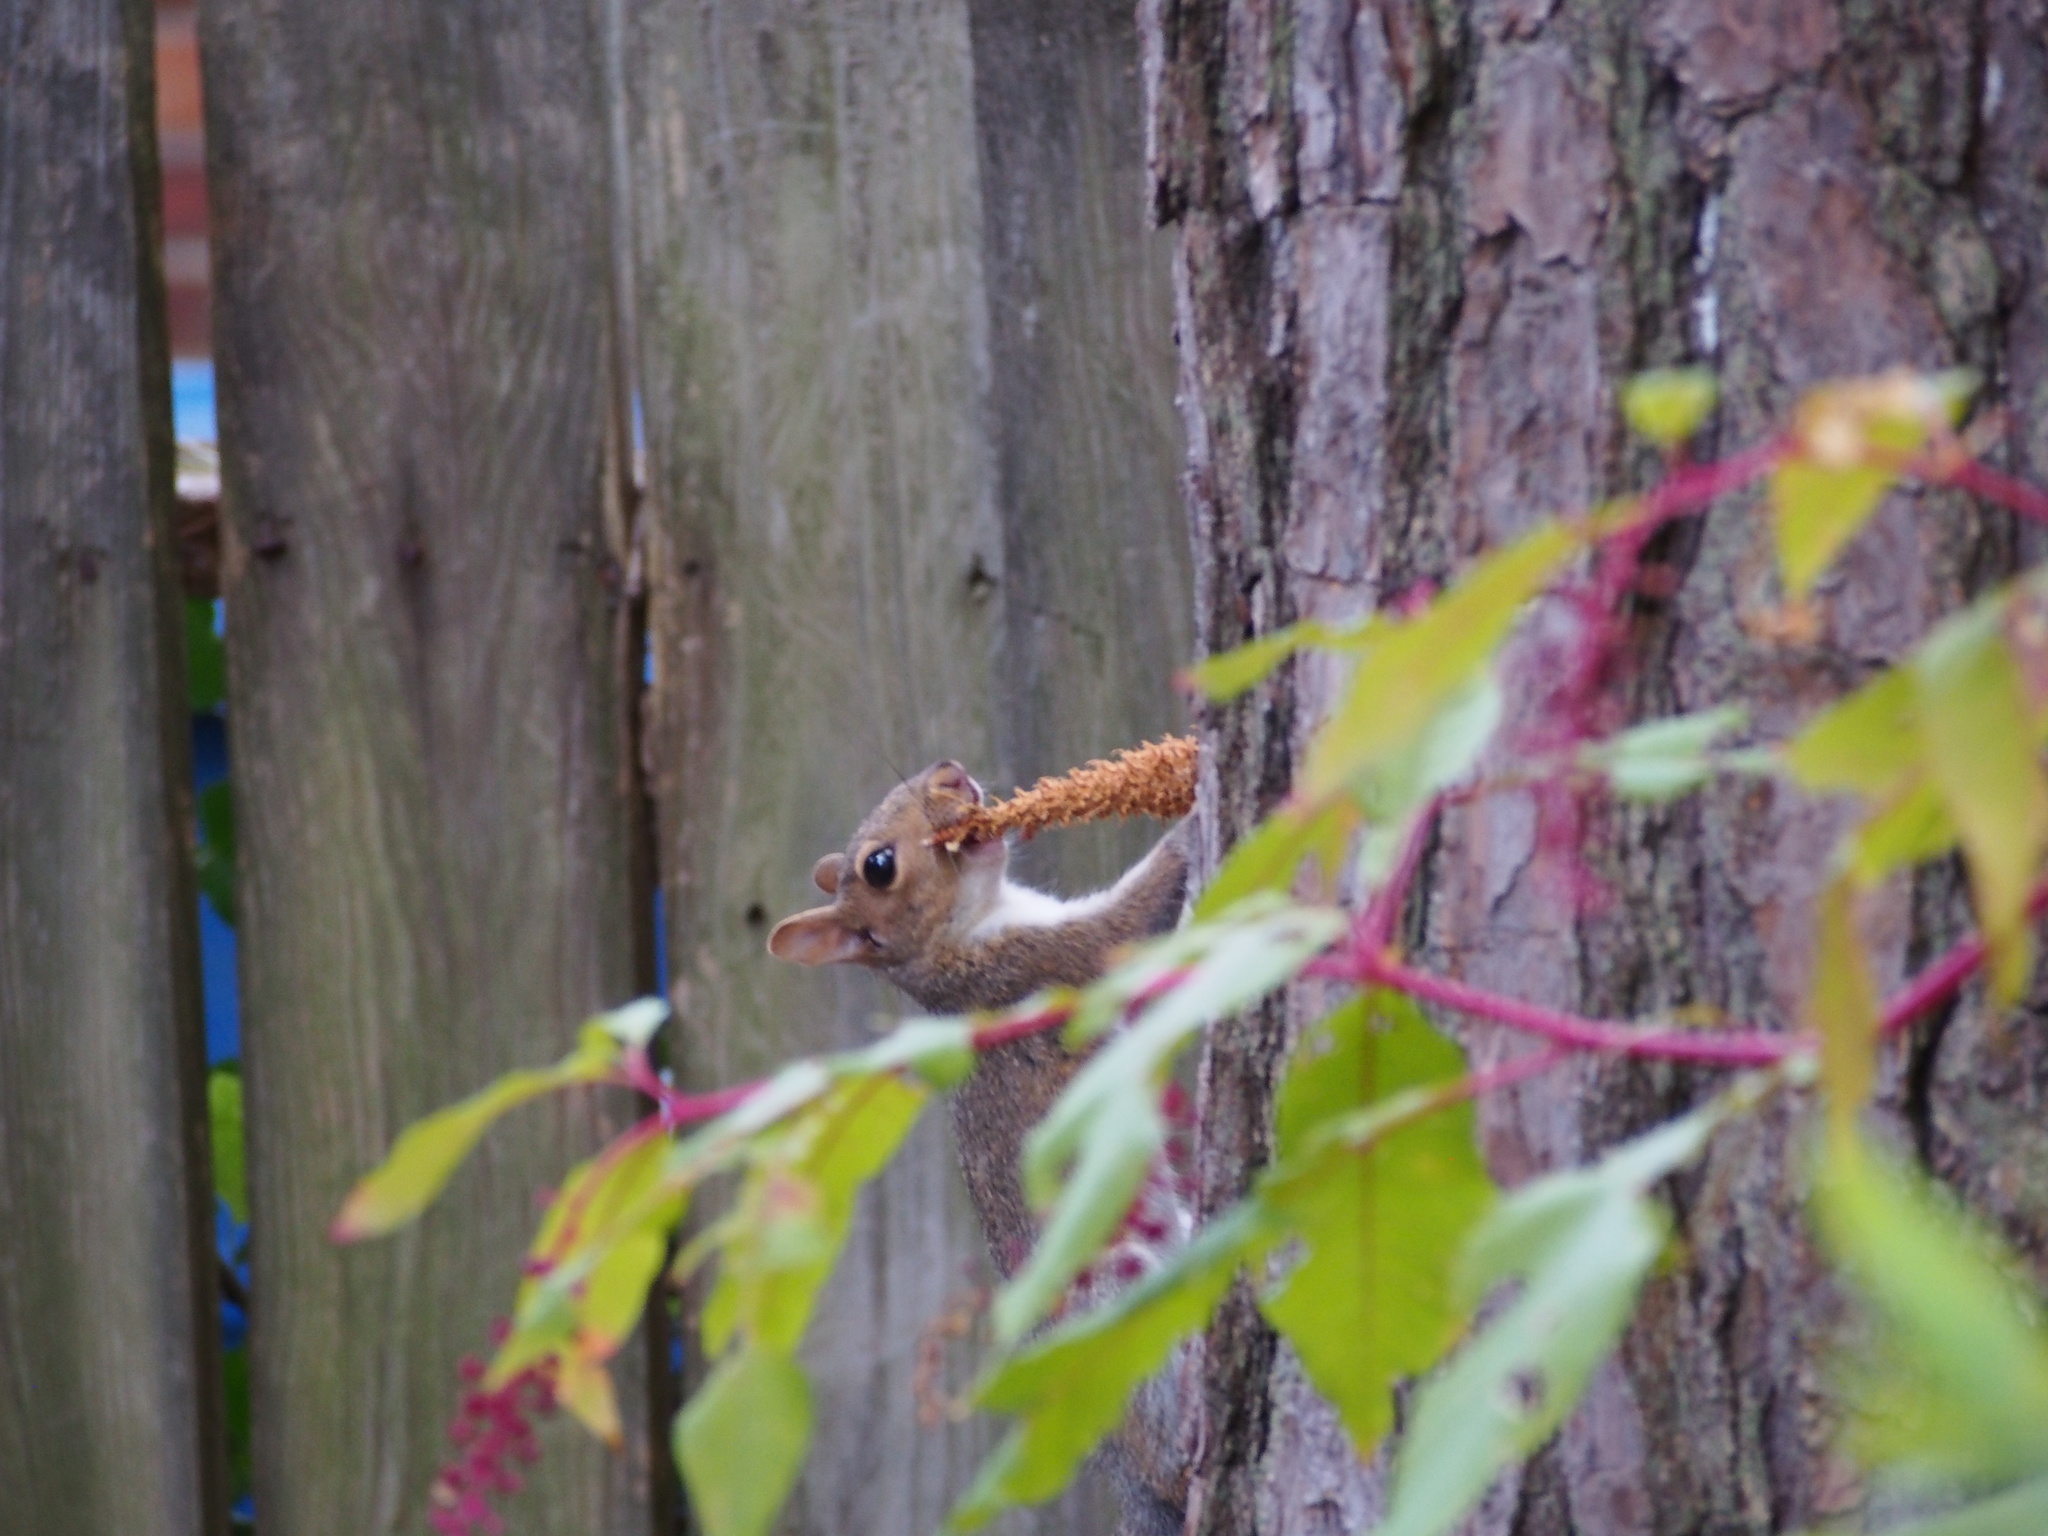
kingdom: Animalia
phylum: Chordata
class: Mammalia
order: Rodentia
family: Sciuridae
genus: Sciurus
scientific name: Sciurus carolinensis
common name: Eastern gray squirrel
